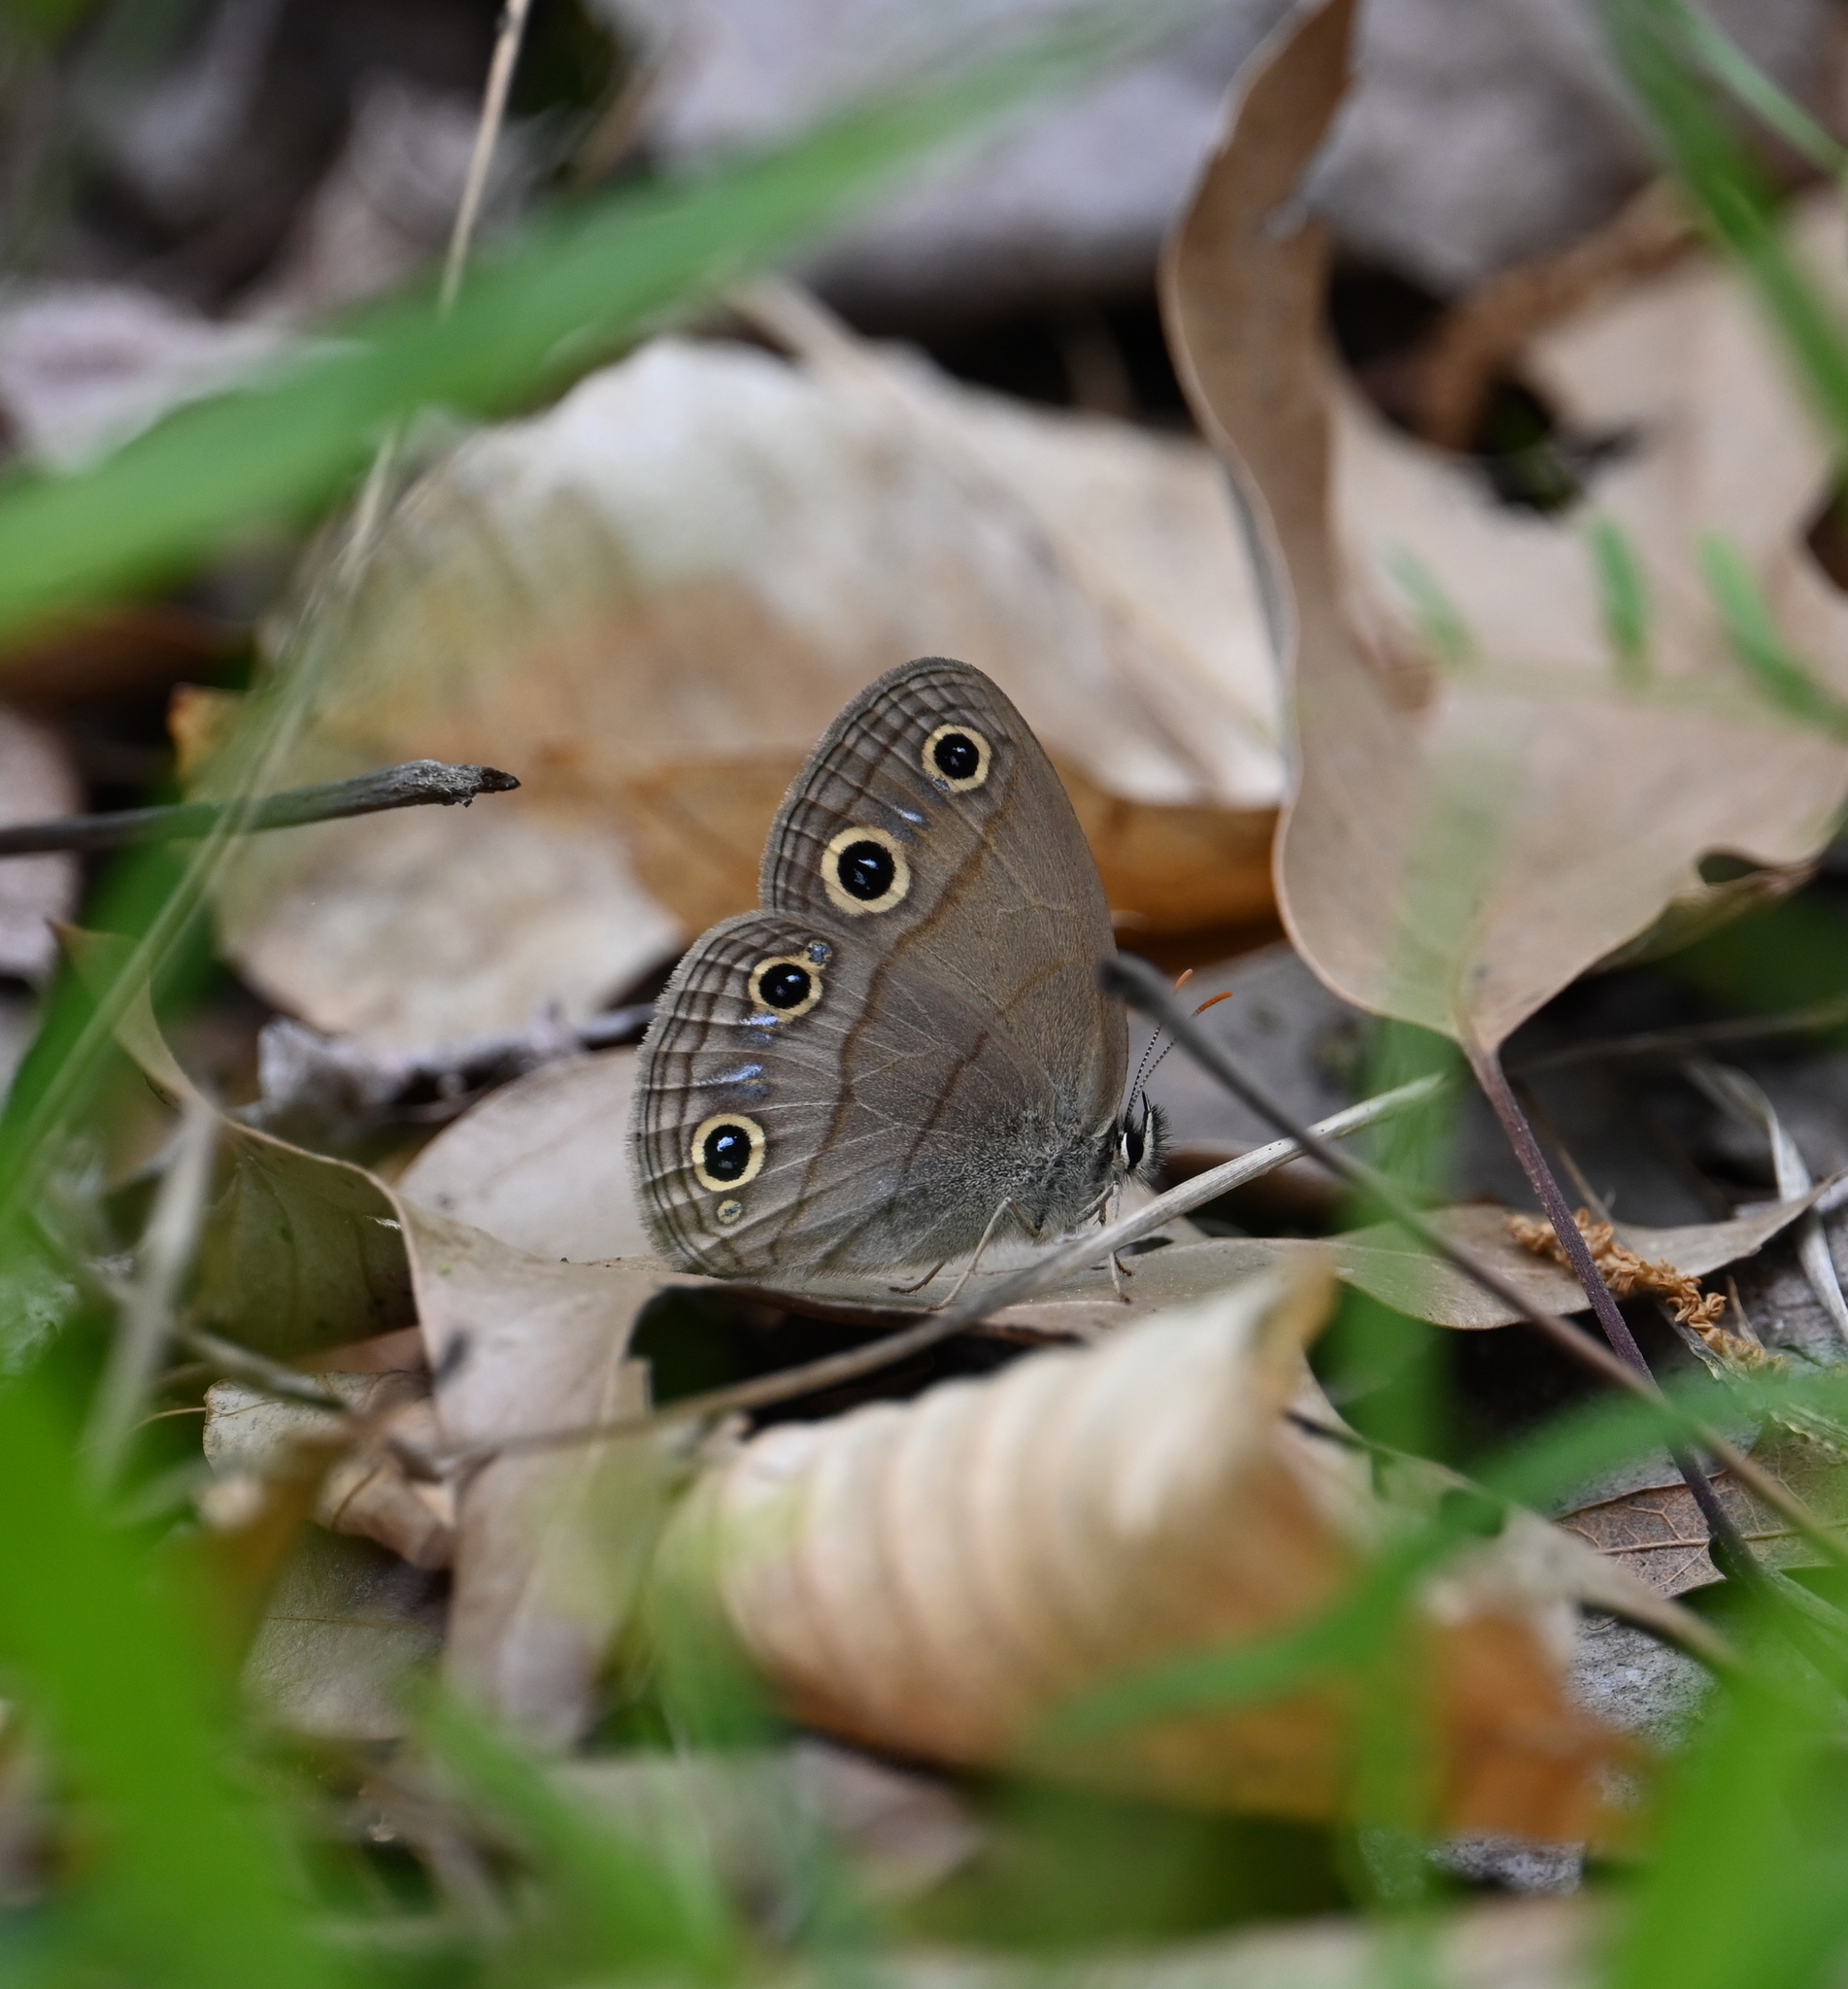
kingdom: Animalia
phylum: Arthropoda
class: Insecta
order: Lepidoptera
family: Nymphalidae
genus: Euptychia
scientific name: Euptychia cymela
